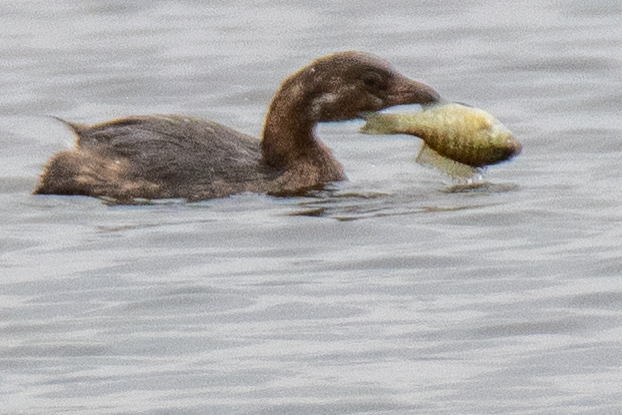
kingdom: Animalia
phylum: Chordata
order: Perciformes
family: Centrarchidae
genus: Lepomis
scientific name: Lepomis macrochirus
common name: Bluegill
